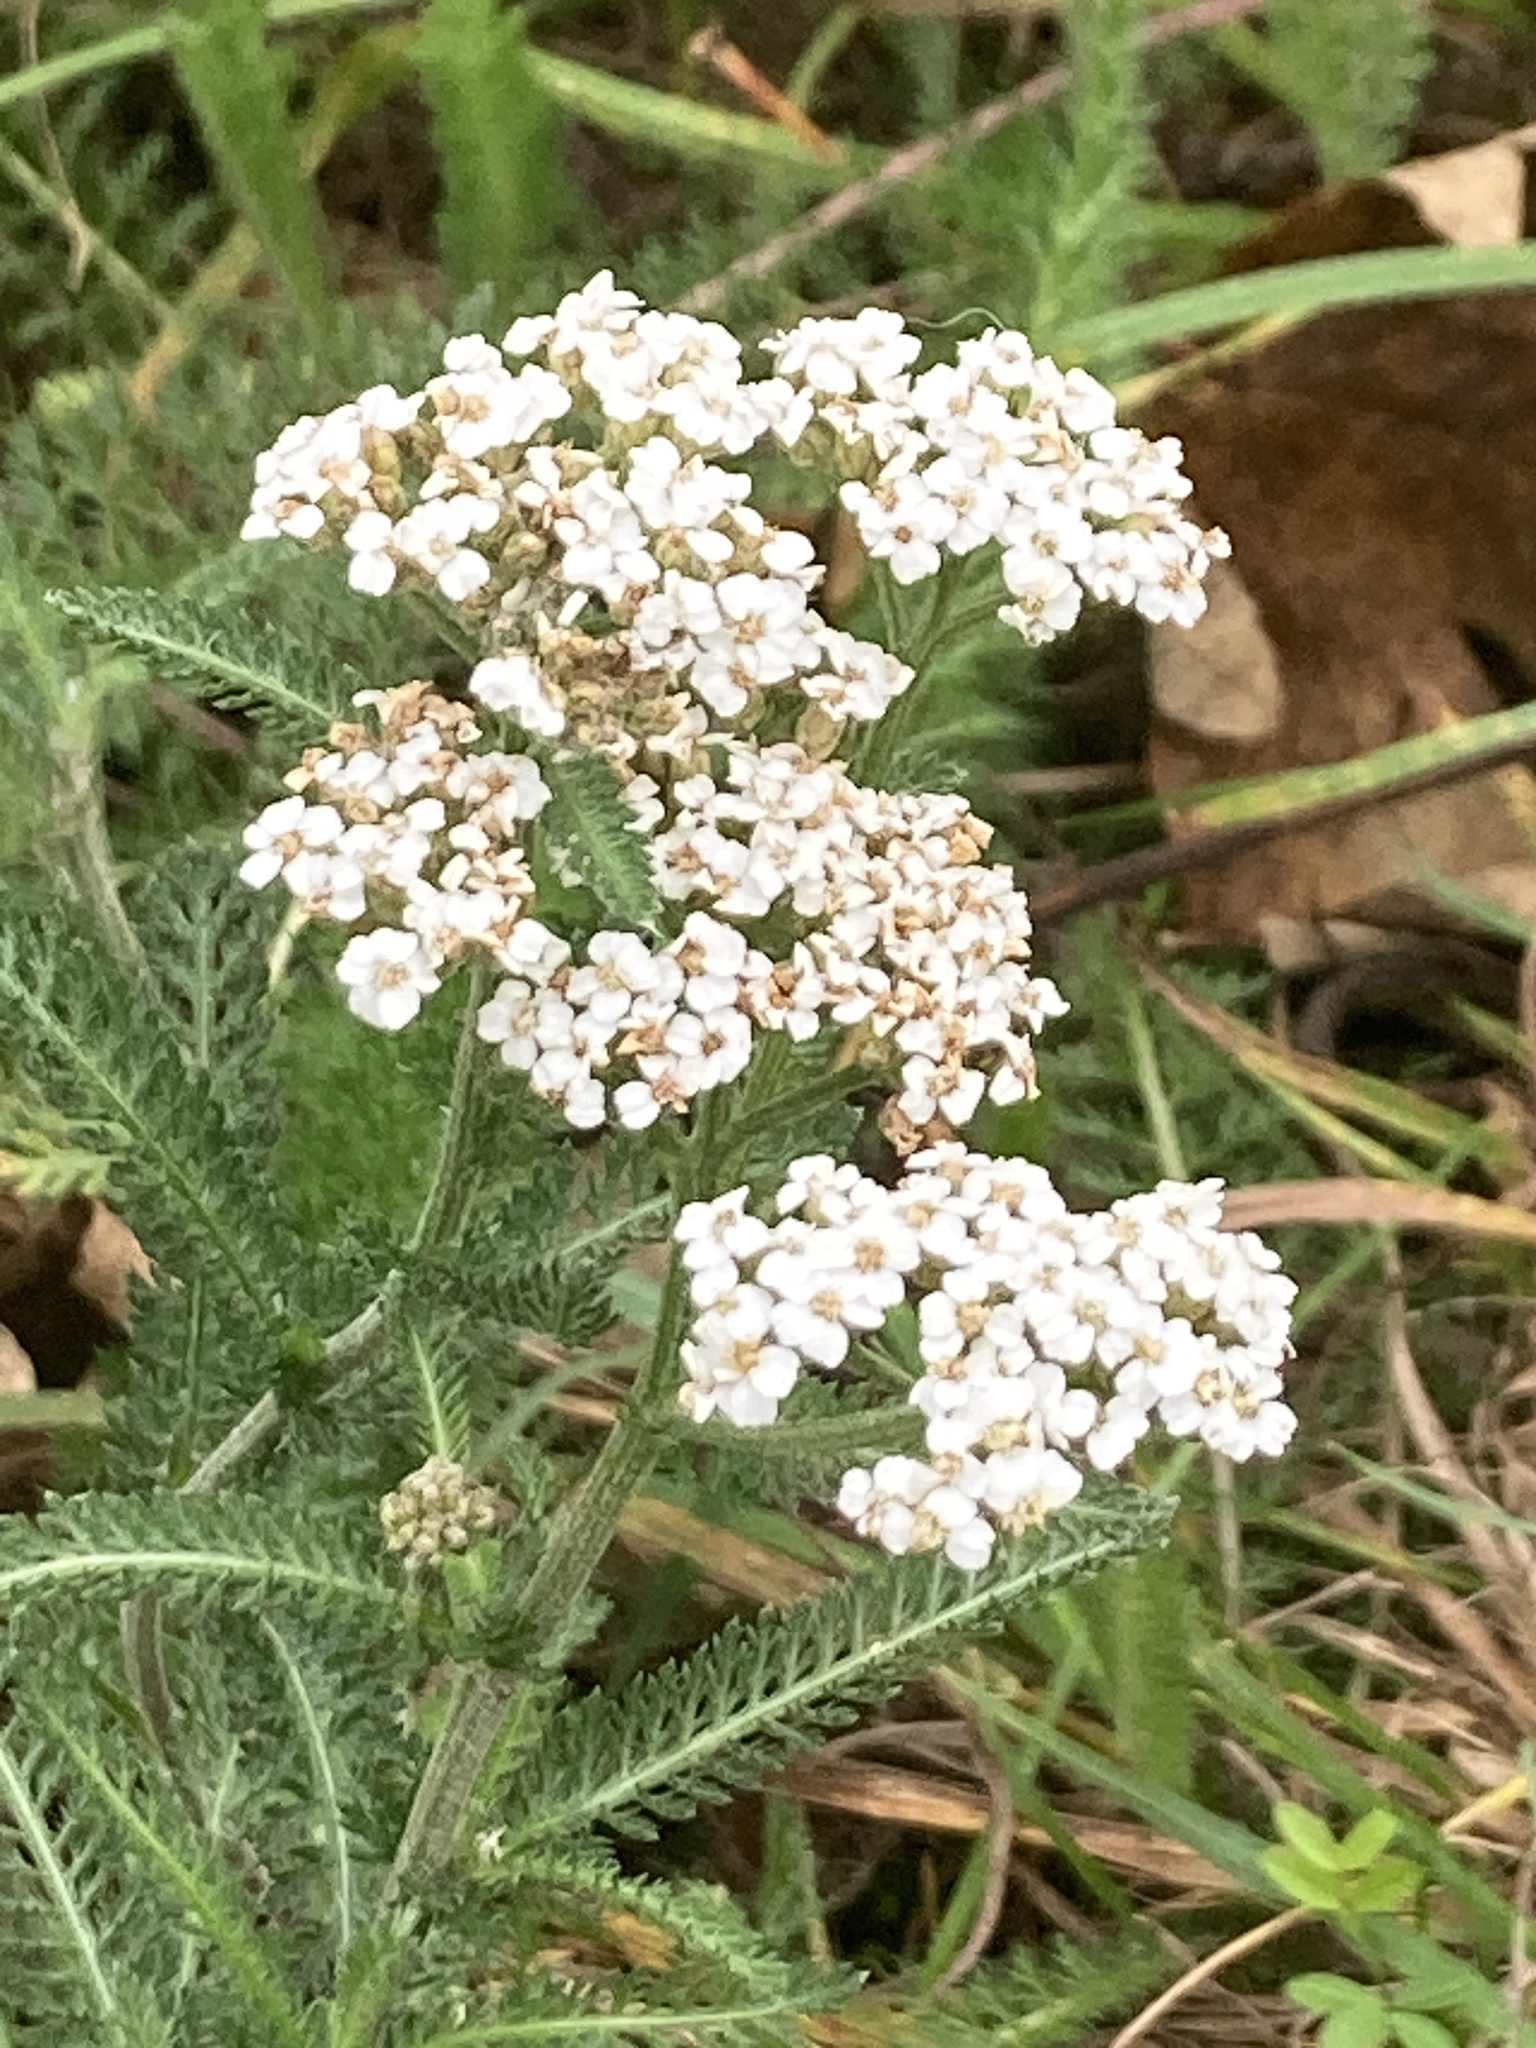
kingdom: Plantae
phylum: Tracheophyta
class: Magnoliopsida
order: Asterales
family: Asteraceae
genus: Achillea
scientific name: Achillea millefolium
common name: Yarrow
